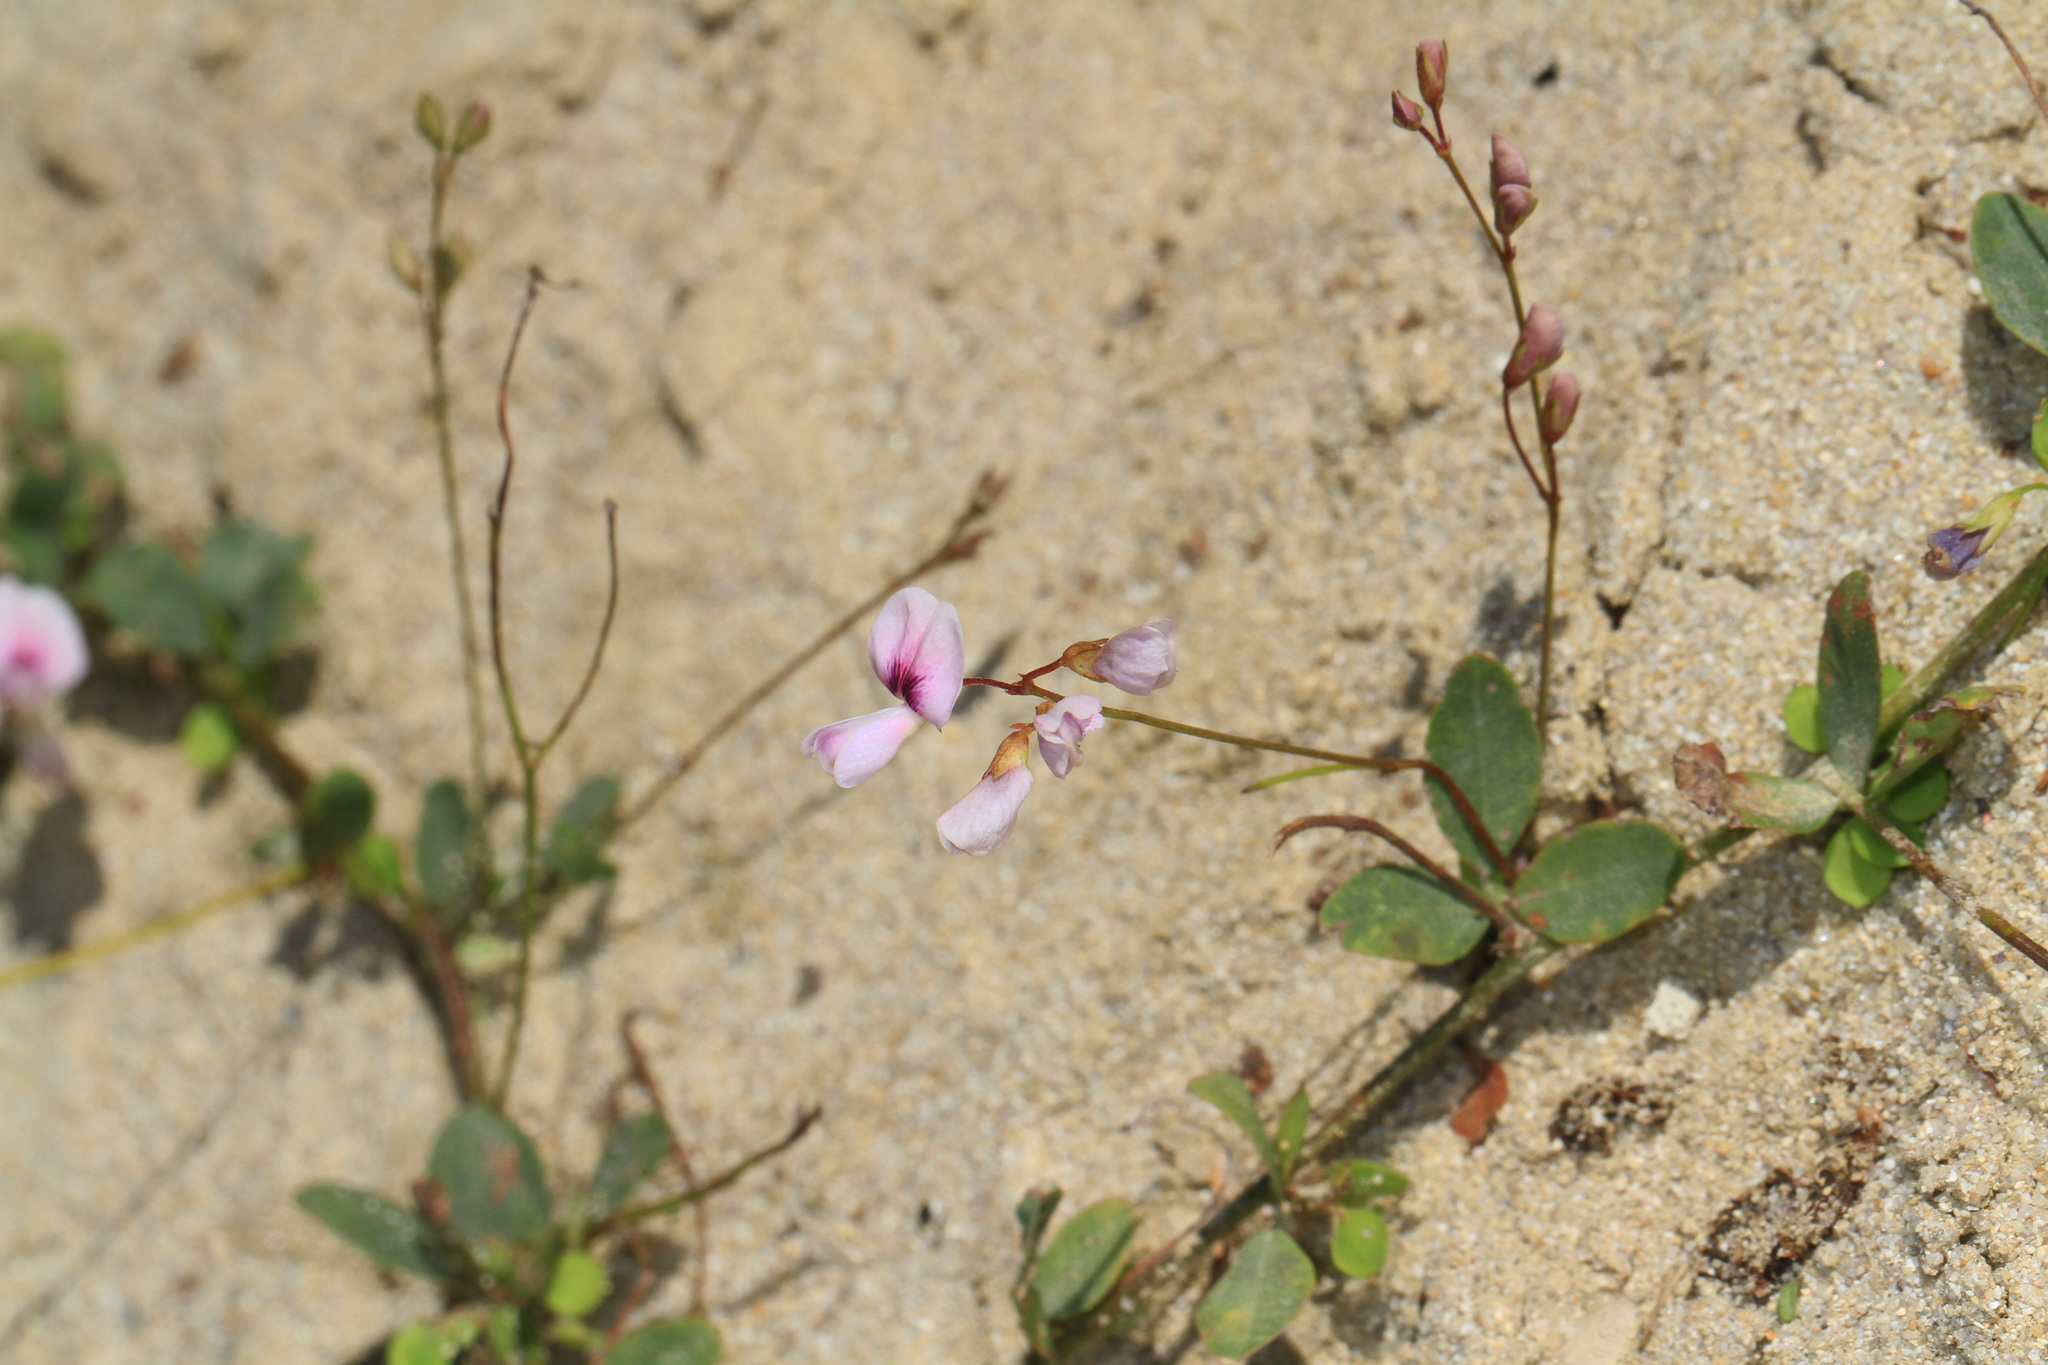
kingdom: Plantae
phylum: Tracheophyta
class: Magnoliopsida
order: Fabales
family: Fabaceae
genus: Lespedeza
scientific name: Lespedeza repens
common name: Creeping bush-clover
